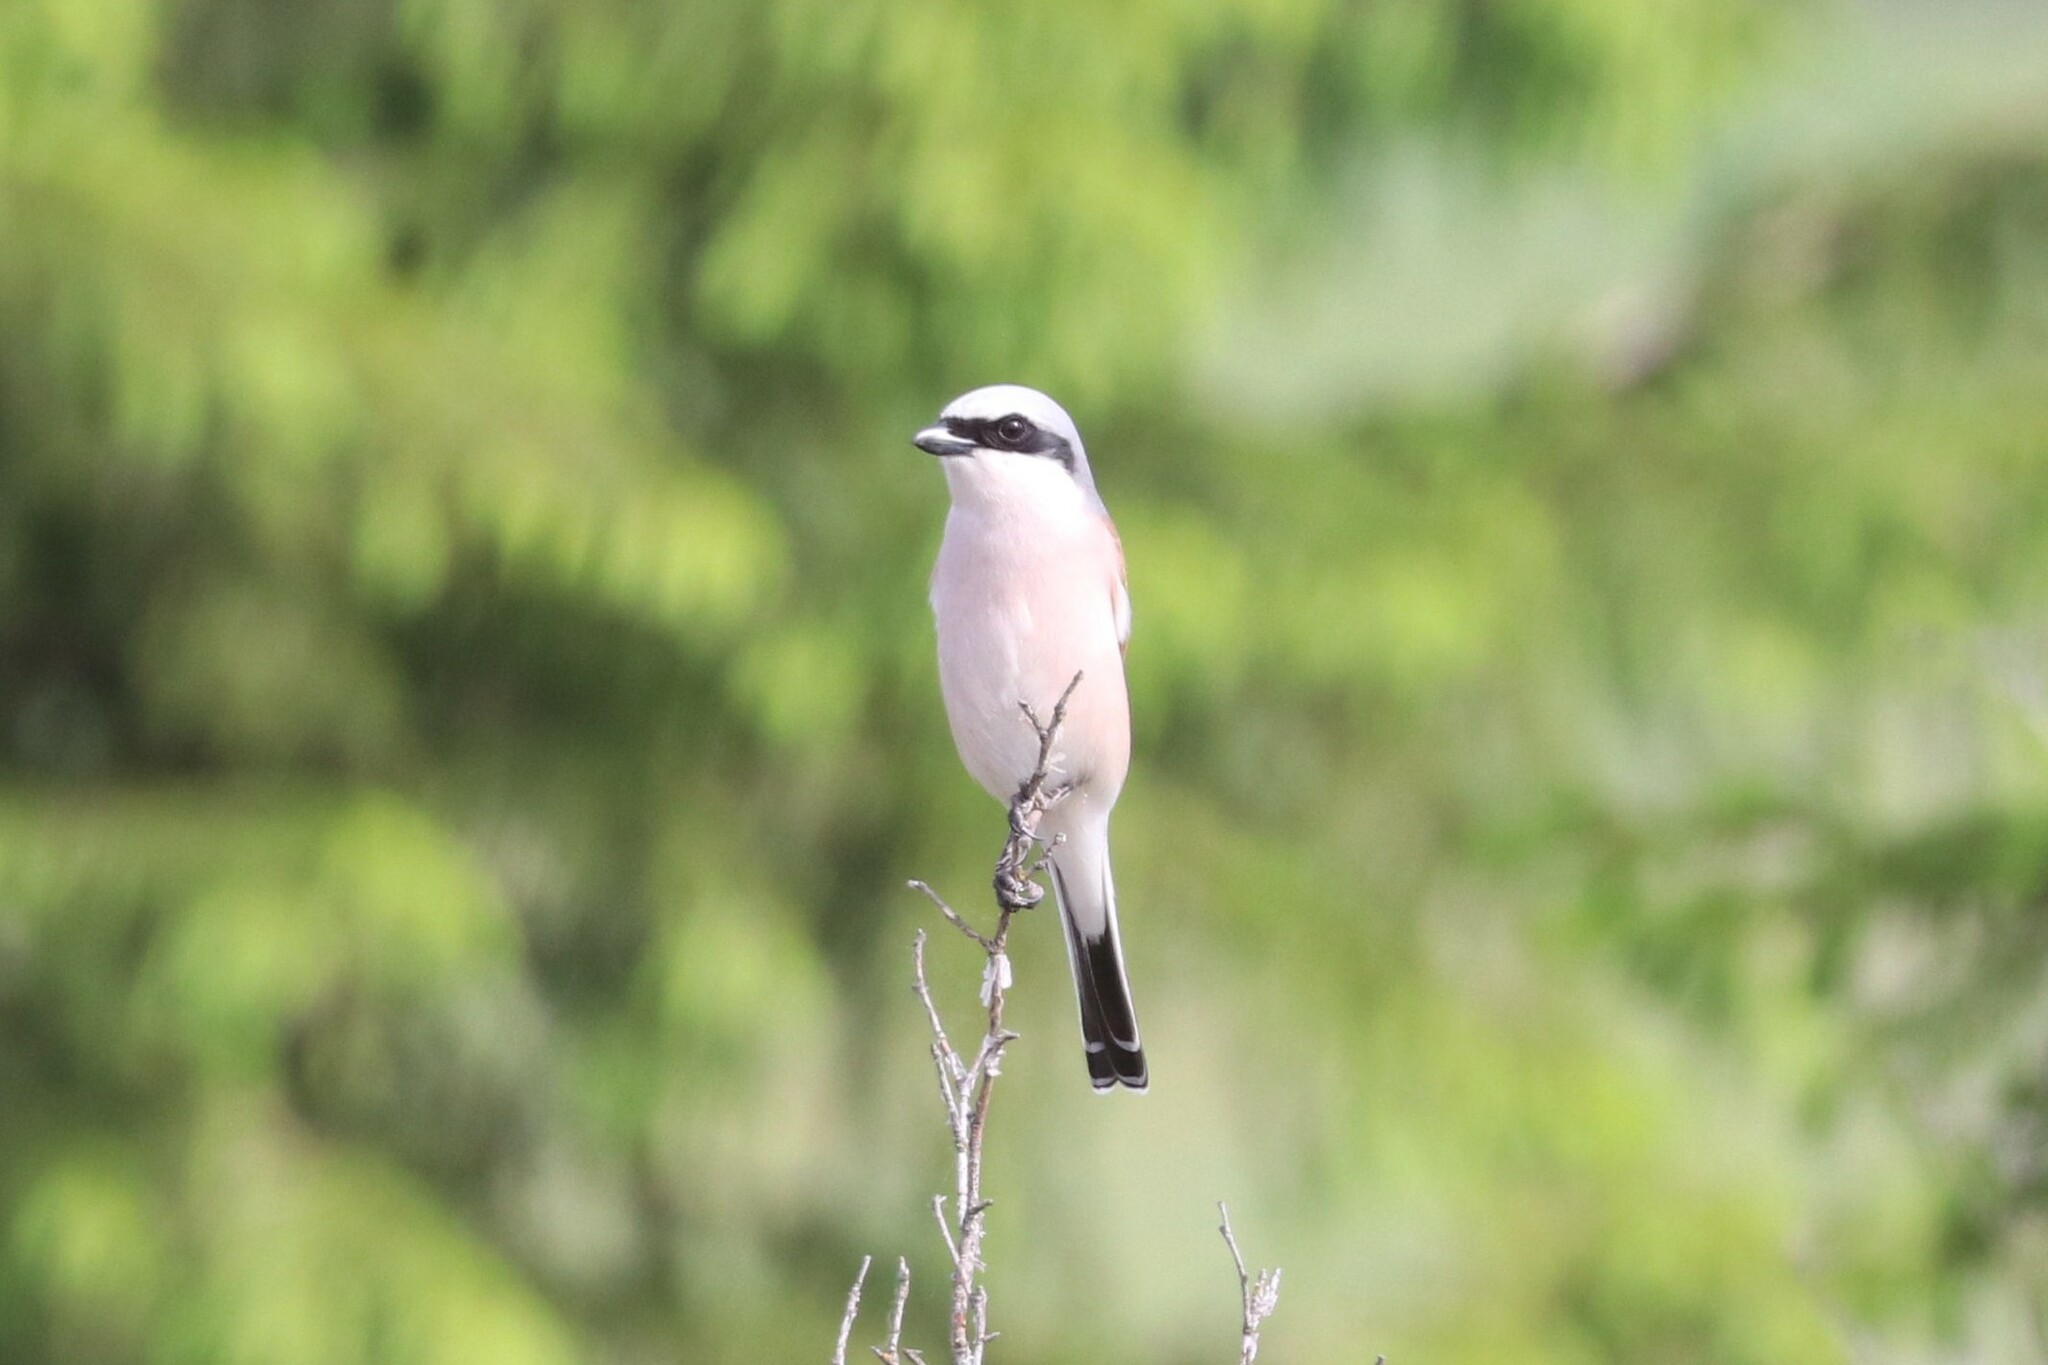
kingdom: Animalia
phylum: Chordata
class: Aves
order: Passeriformes
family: Laniidae
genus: Lanius
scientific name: Lanius collurio
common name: Red-backed shrike
